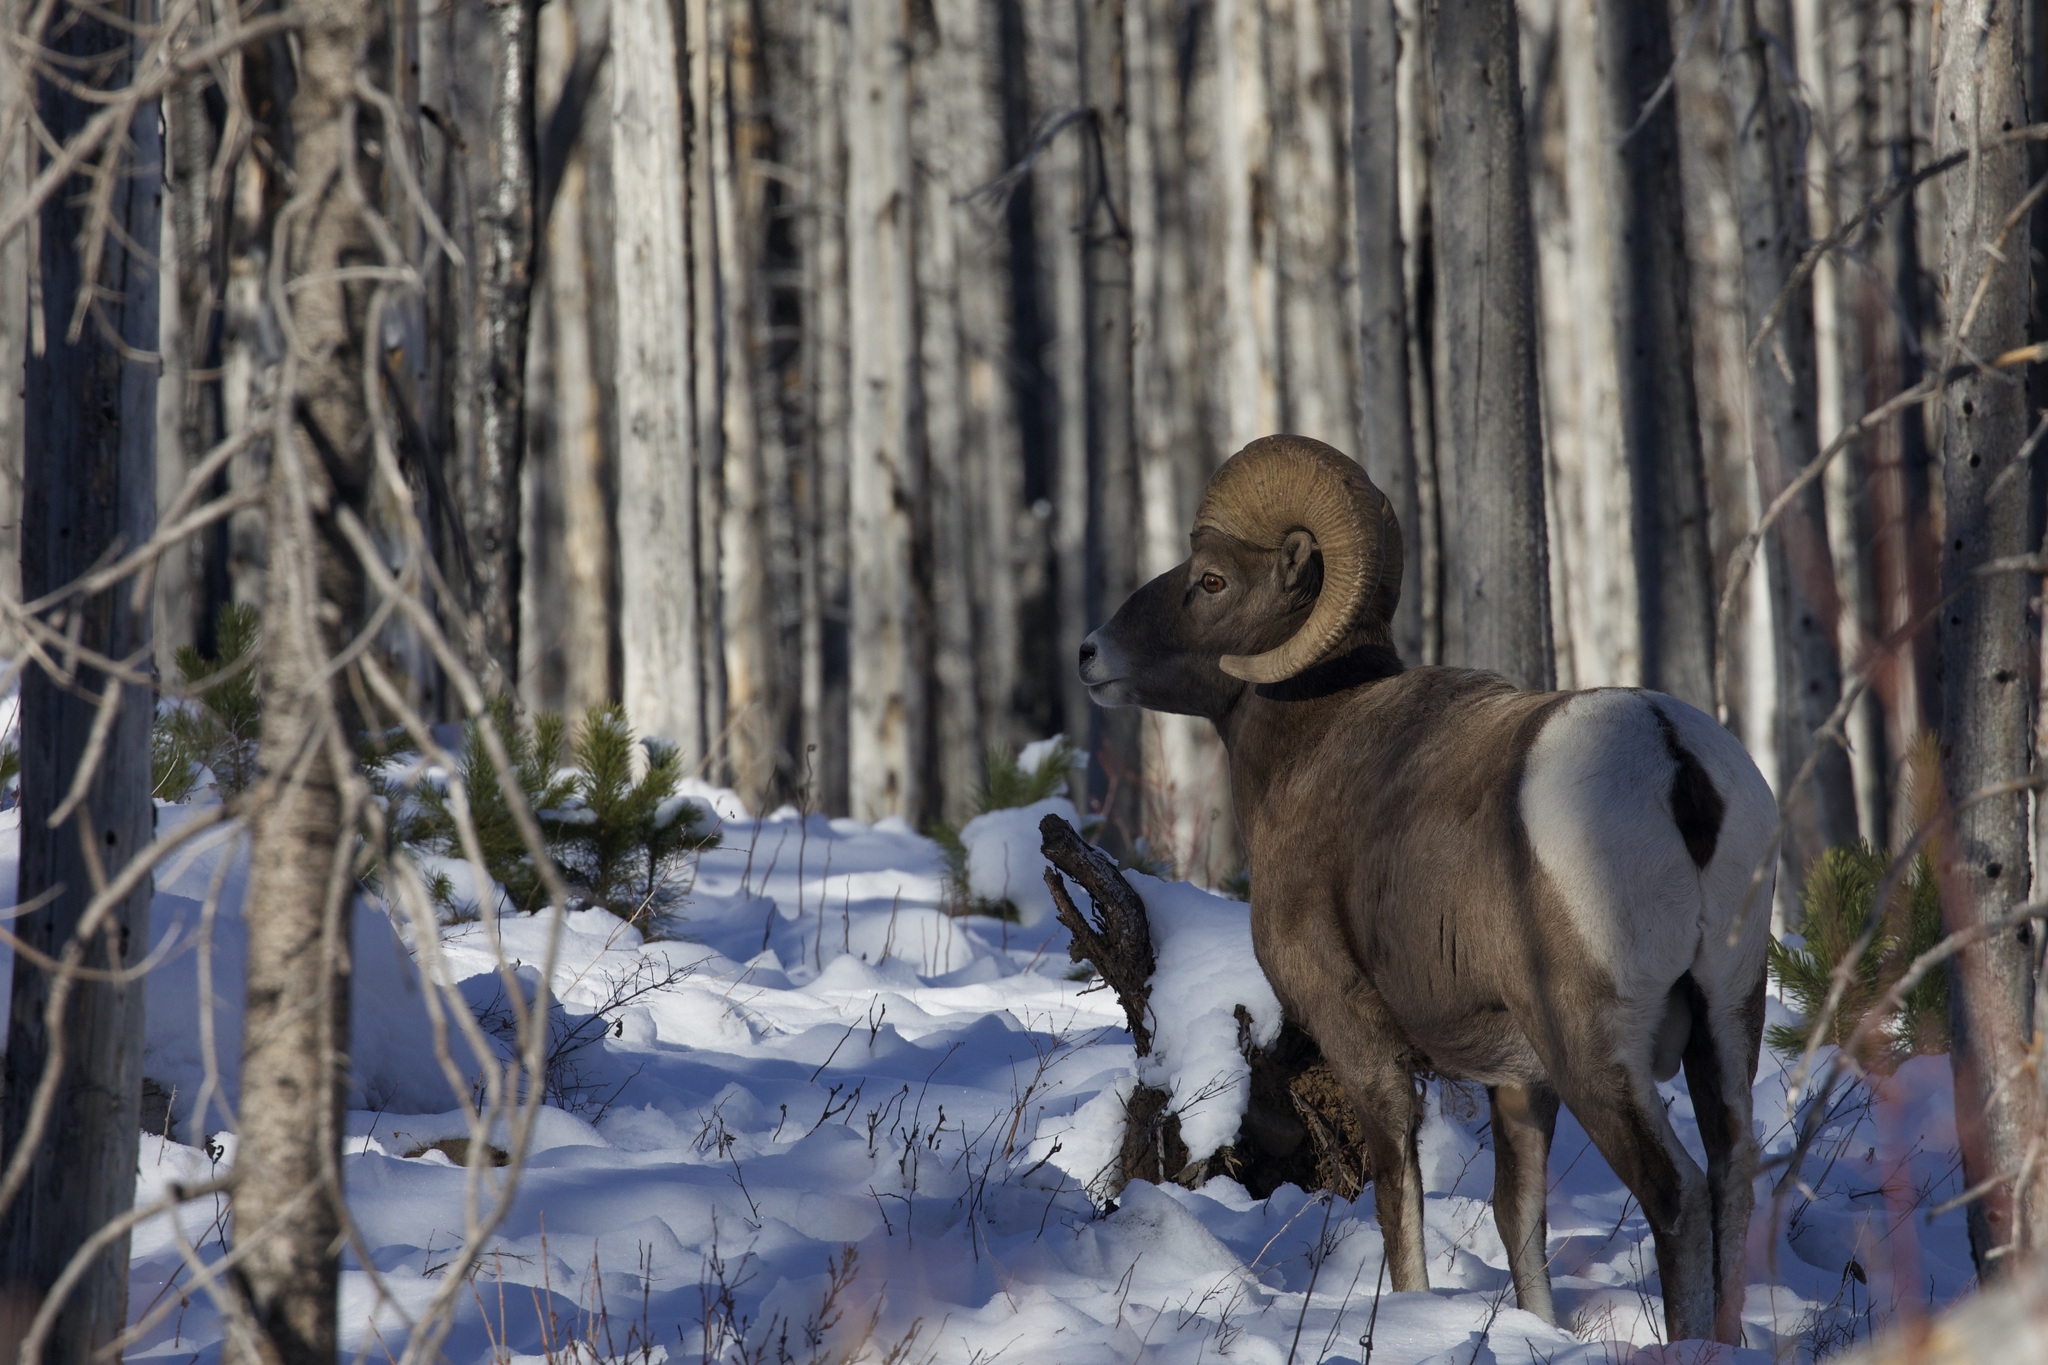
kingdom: Animalia
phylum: Chordata
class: Mammalia
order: Artiodactyla
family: Bovidae
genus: Ovis
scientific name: Ovis canadensis
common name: Bighorn sheep
